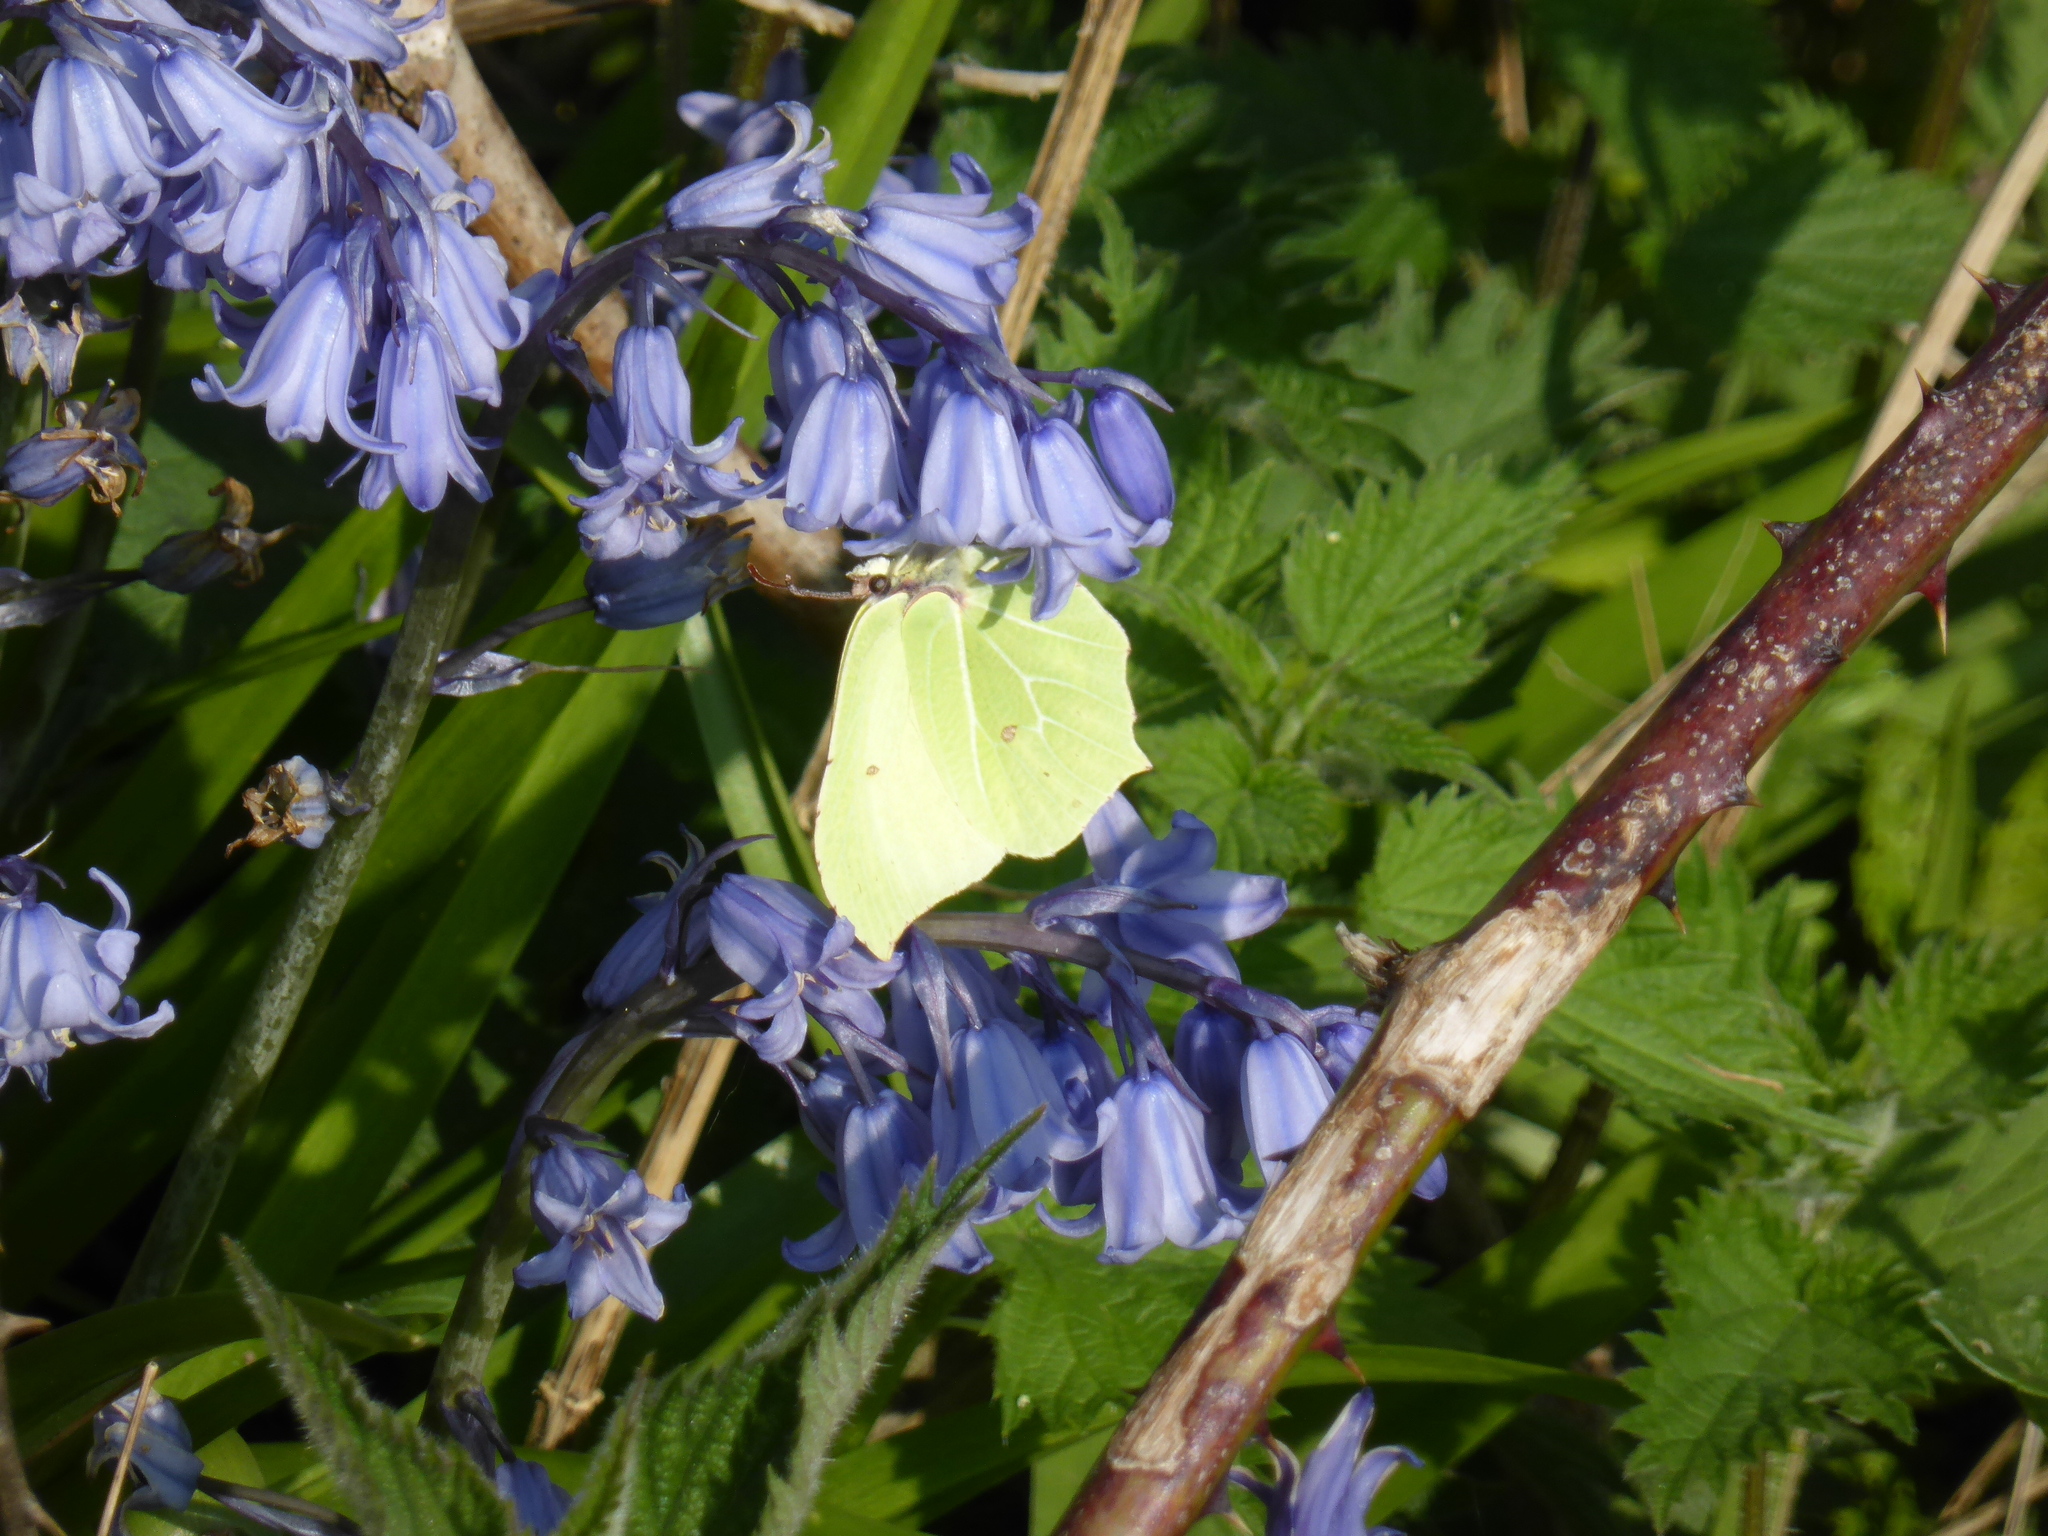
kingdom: Animalia
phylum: Arthropoda
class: Insecta
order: Lepidoptera
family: Pieridae
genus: Gonepteryx
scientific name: Gonepteryx rhamni
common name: Brimstone
